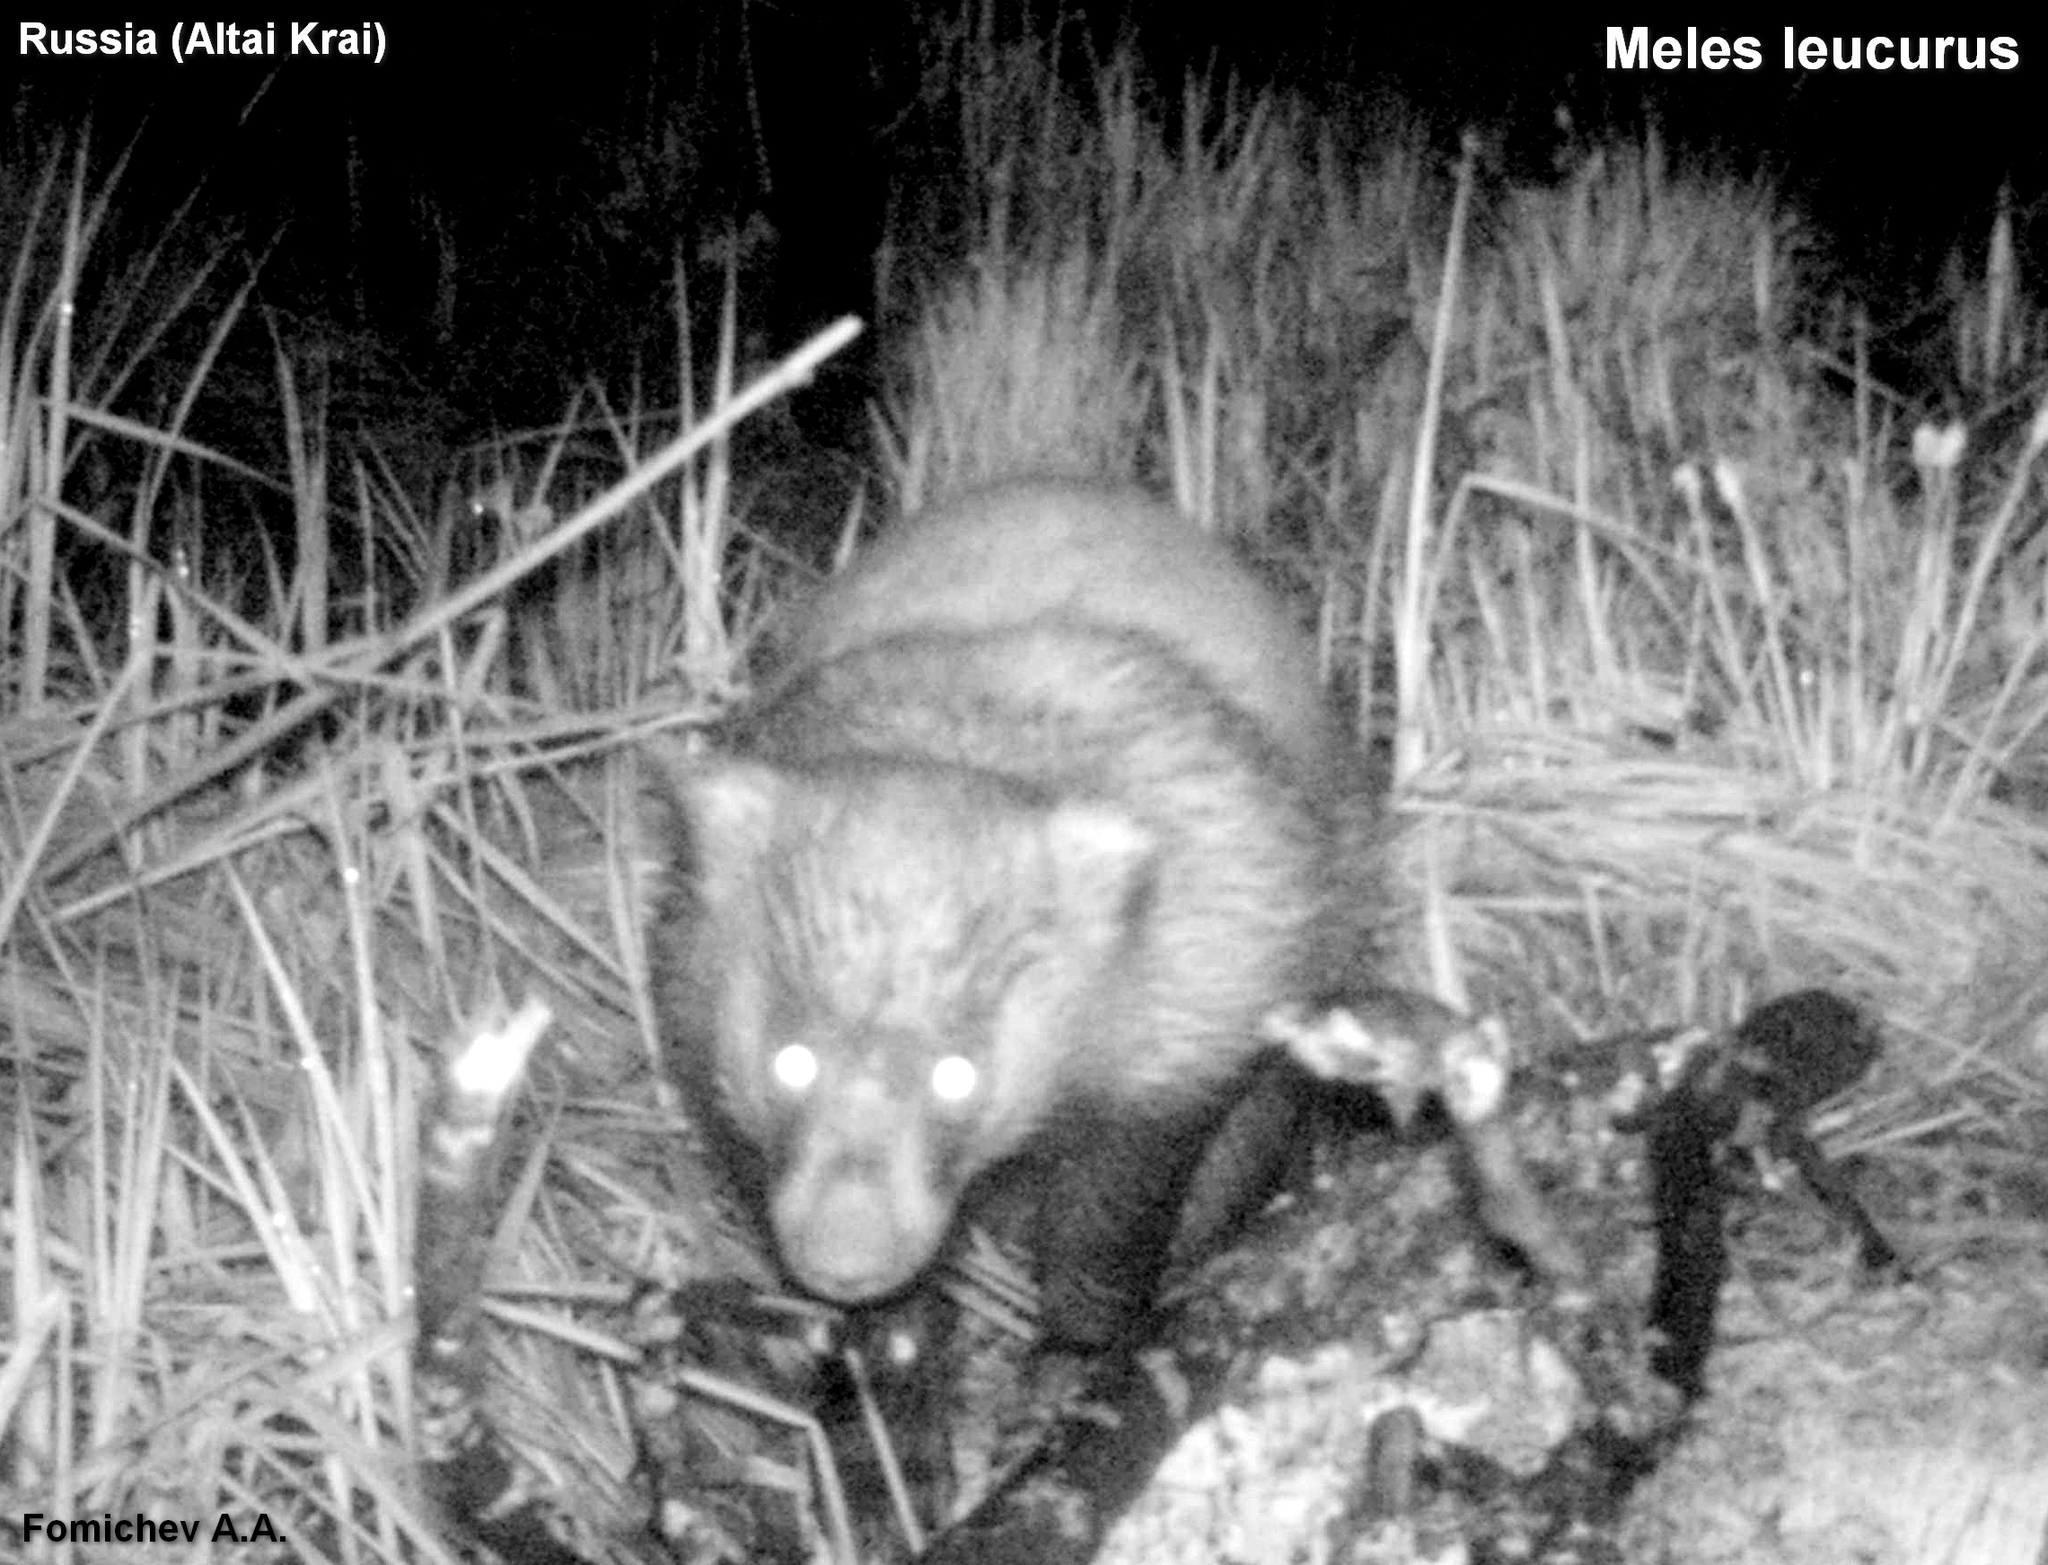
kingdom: Animalia
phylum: Chordata
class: Mammalia
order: Carnivora
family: Mustelidae
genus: Meles
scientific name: Meles leucurus
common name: Asian badger
